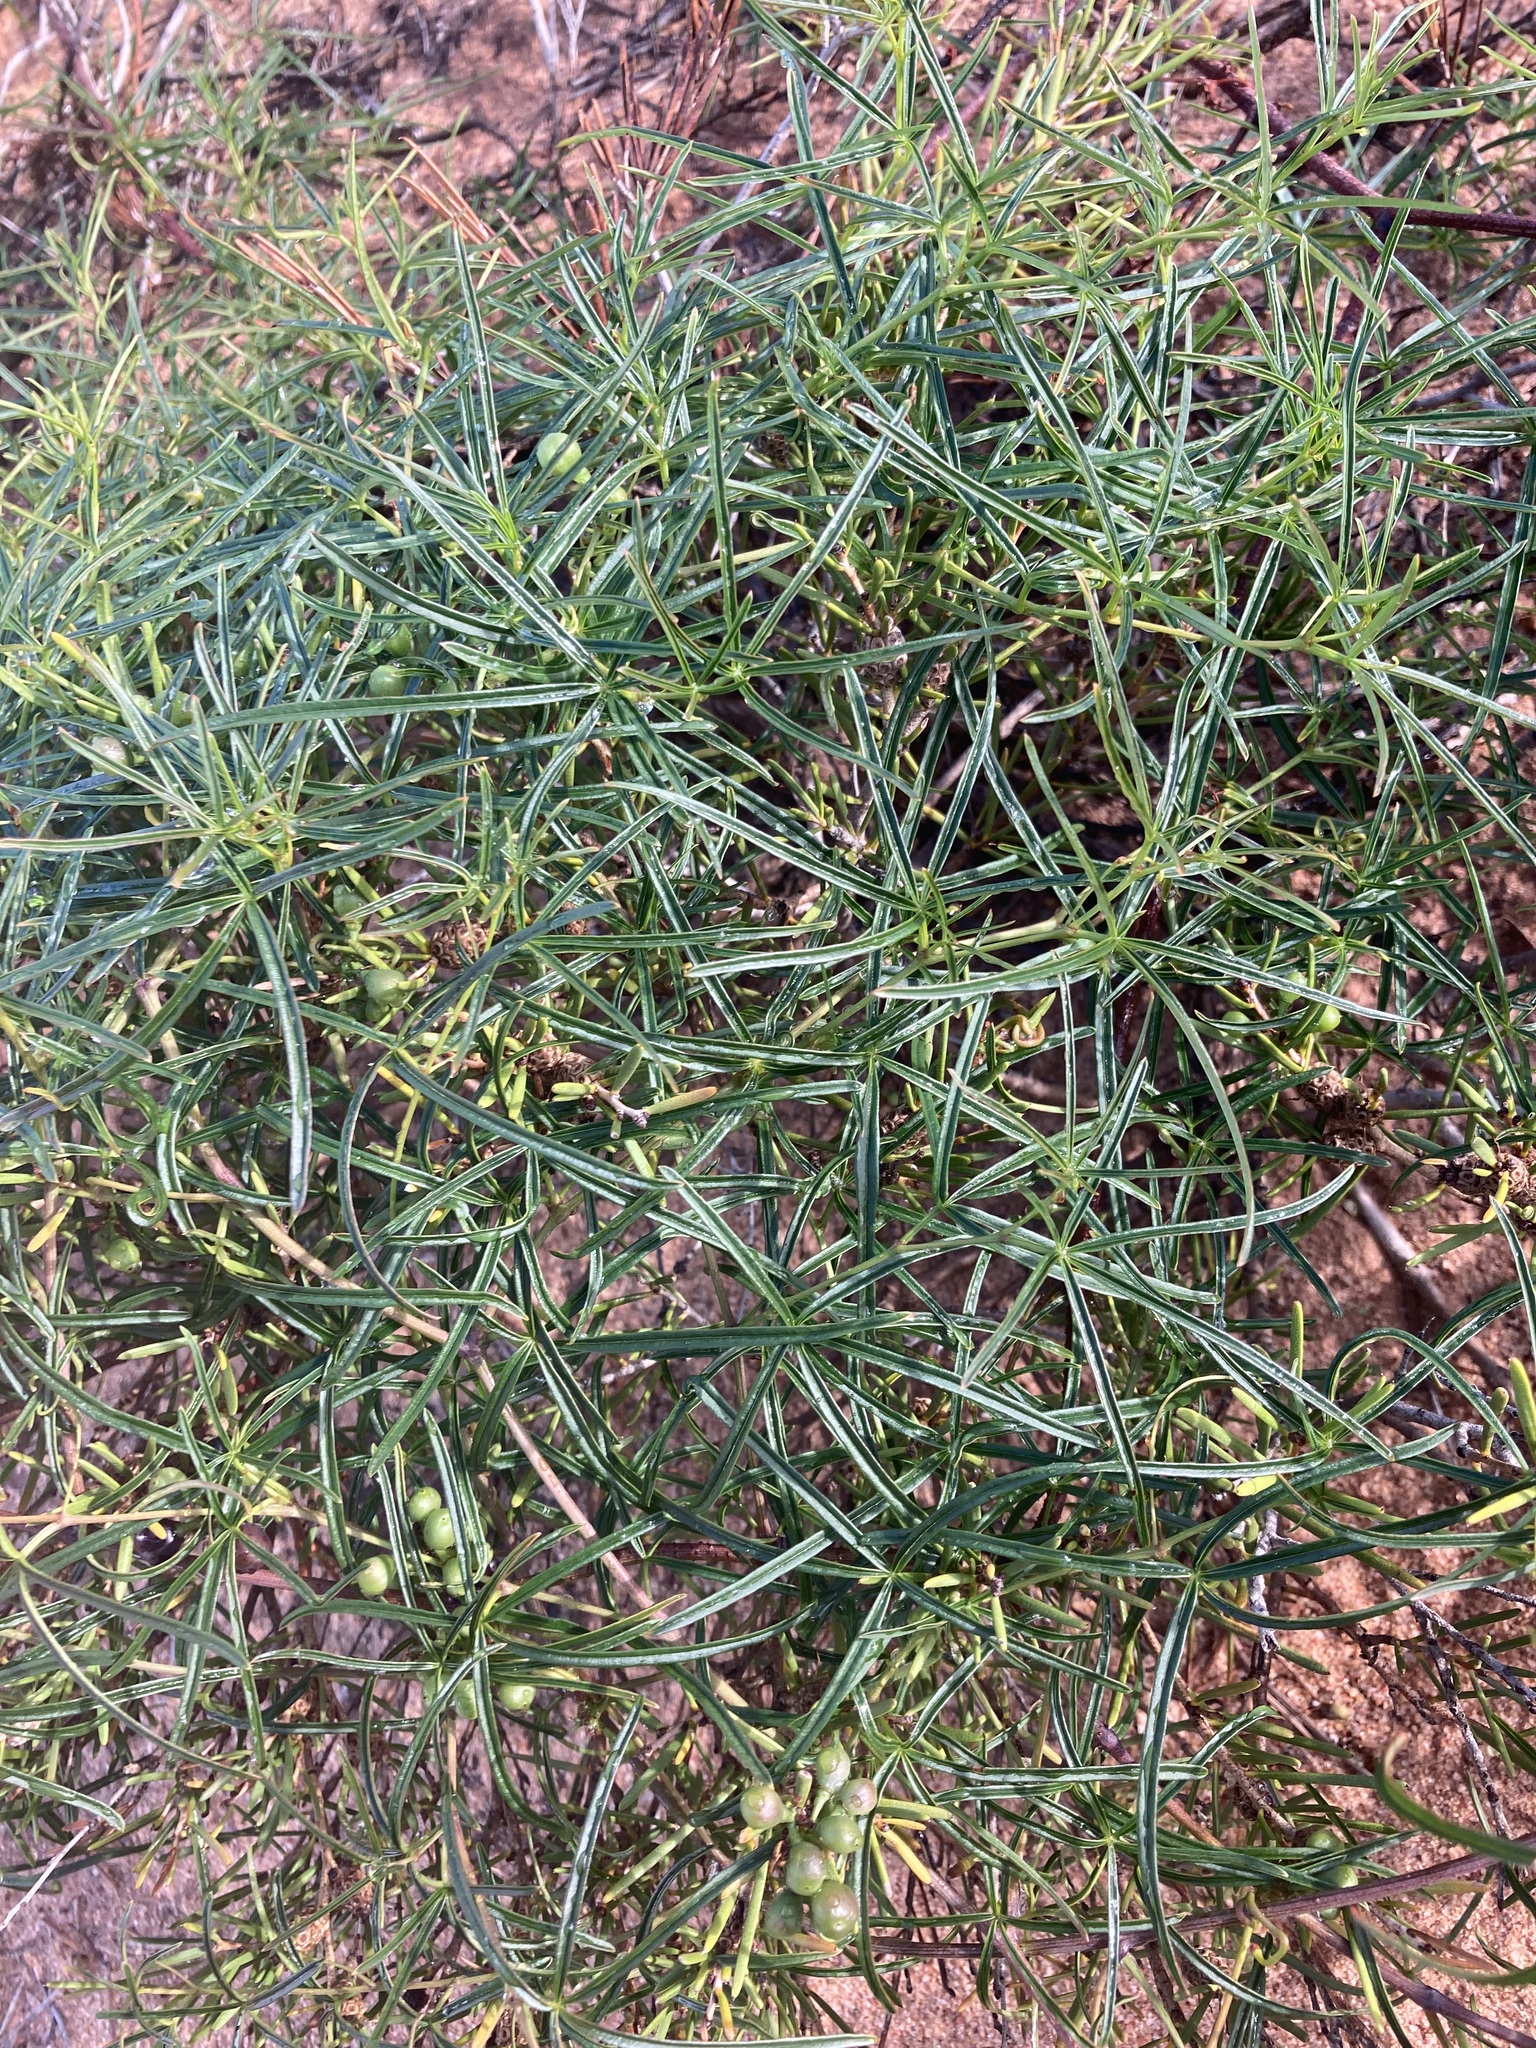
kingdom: Plantae
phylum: Tracheophyta
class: Magnoliopsida
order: Vitales
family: Vitaceae
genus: Clematicissus
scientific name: Clematicissus angustissima
